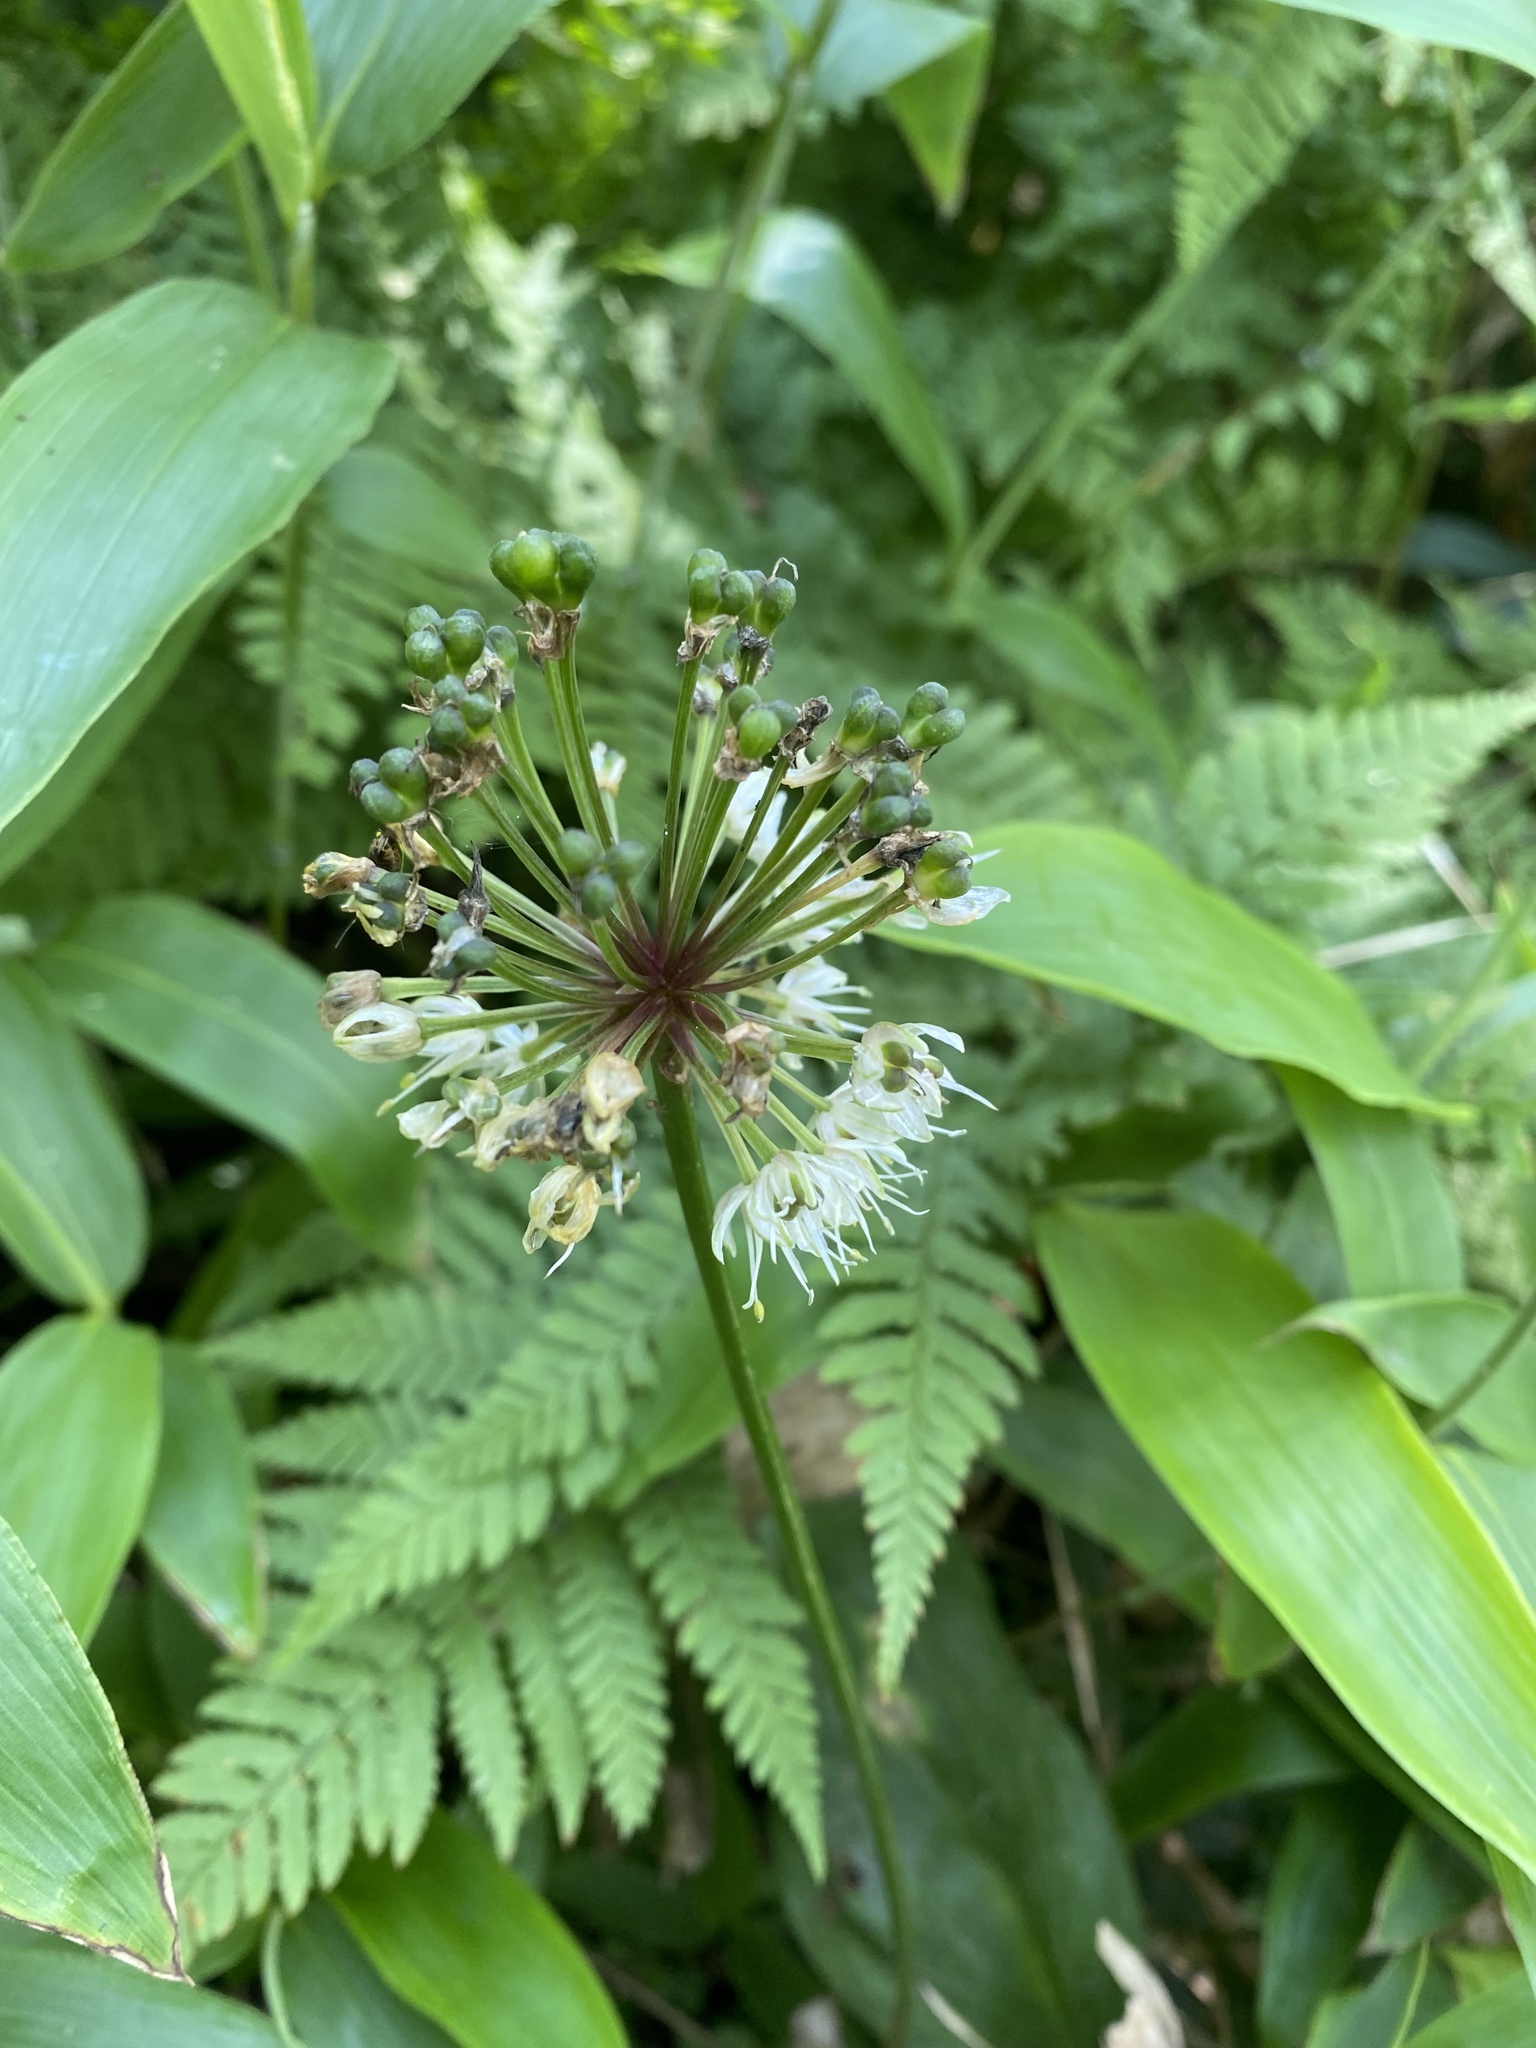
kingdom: Plantae
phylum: Tracheophyta
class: Liliopsida
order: Asparagales
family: Amaryllidaceae
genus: Allium
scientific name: Allium ochotense
